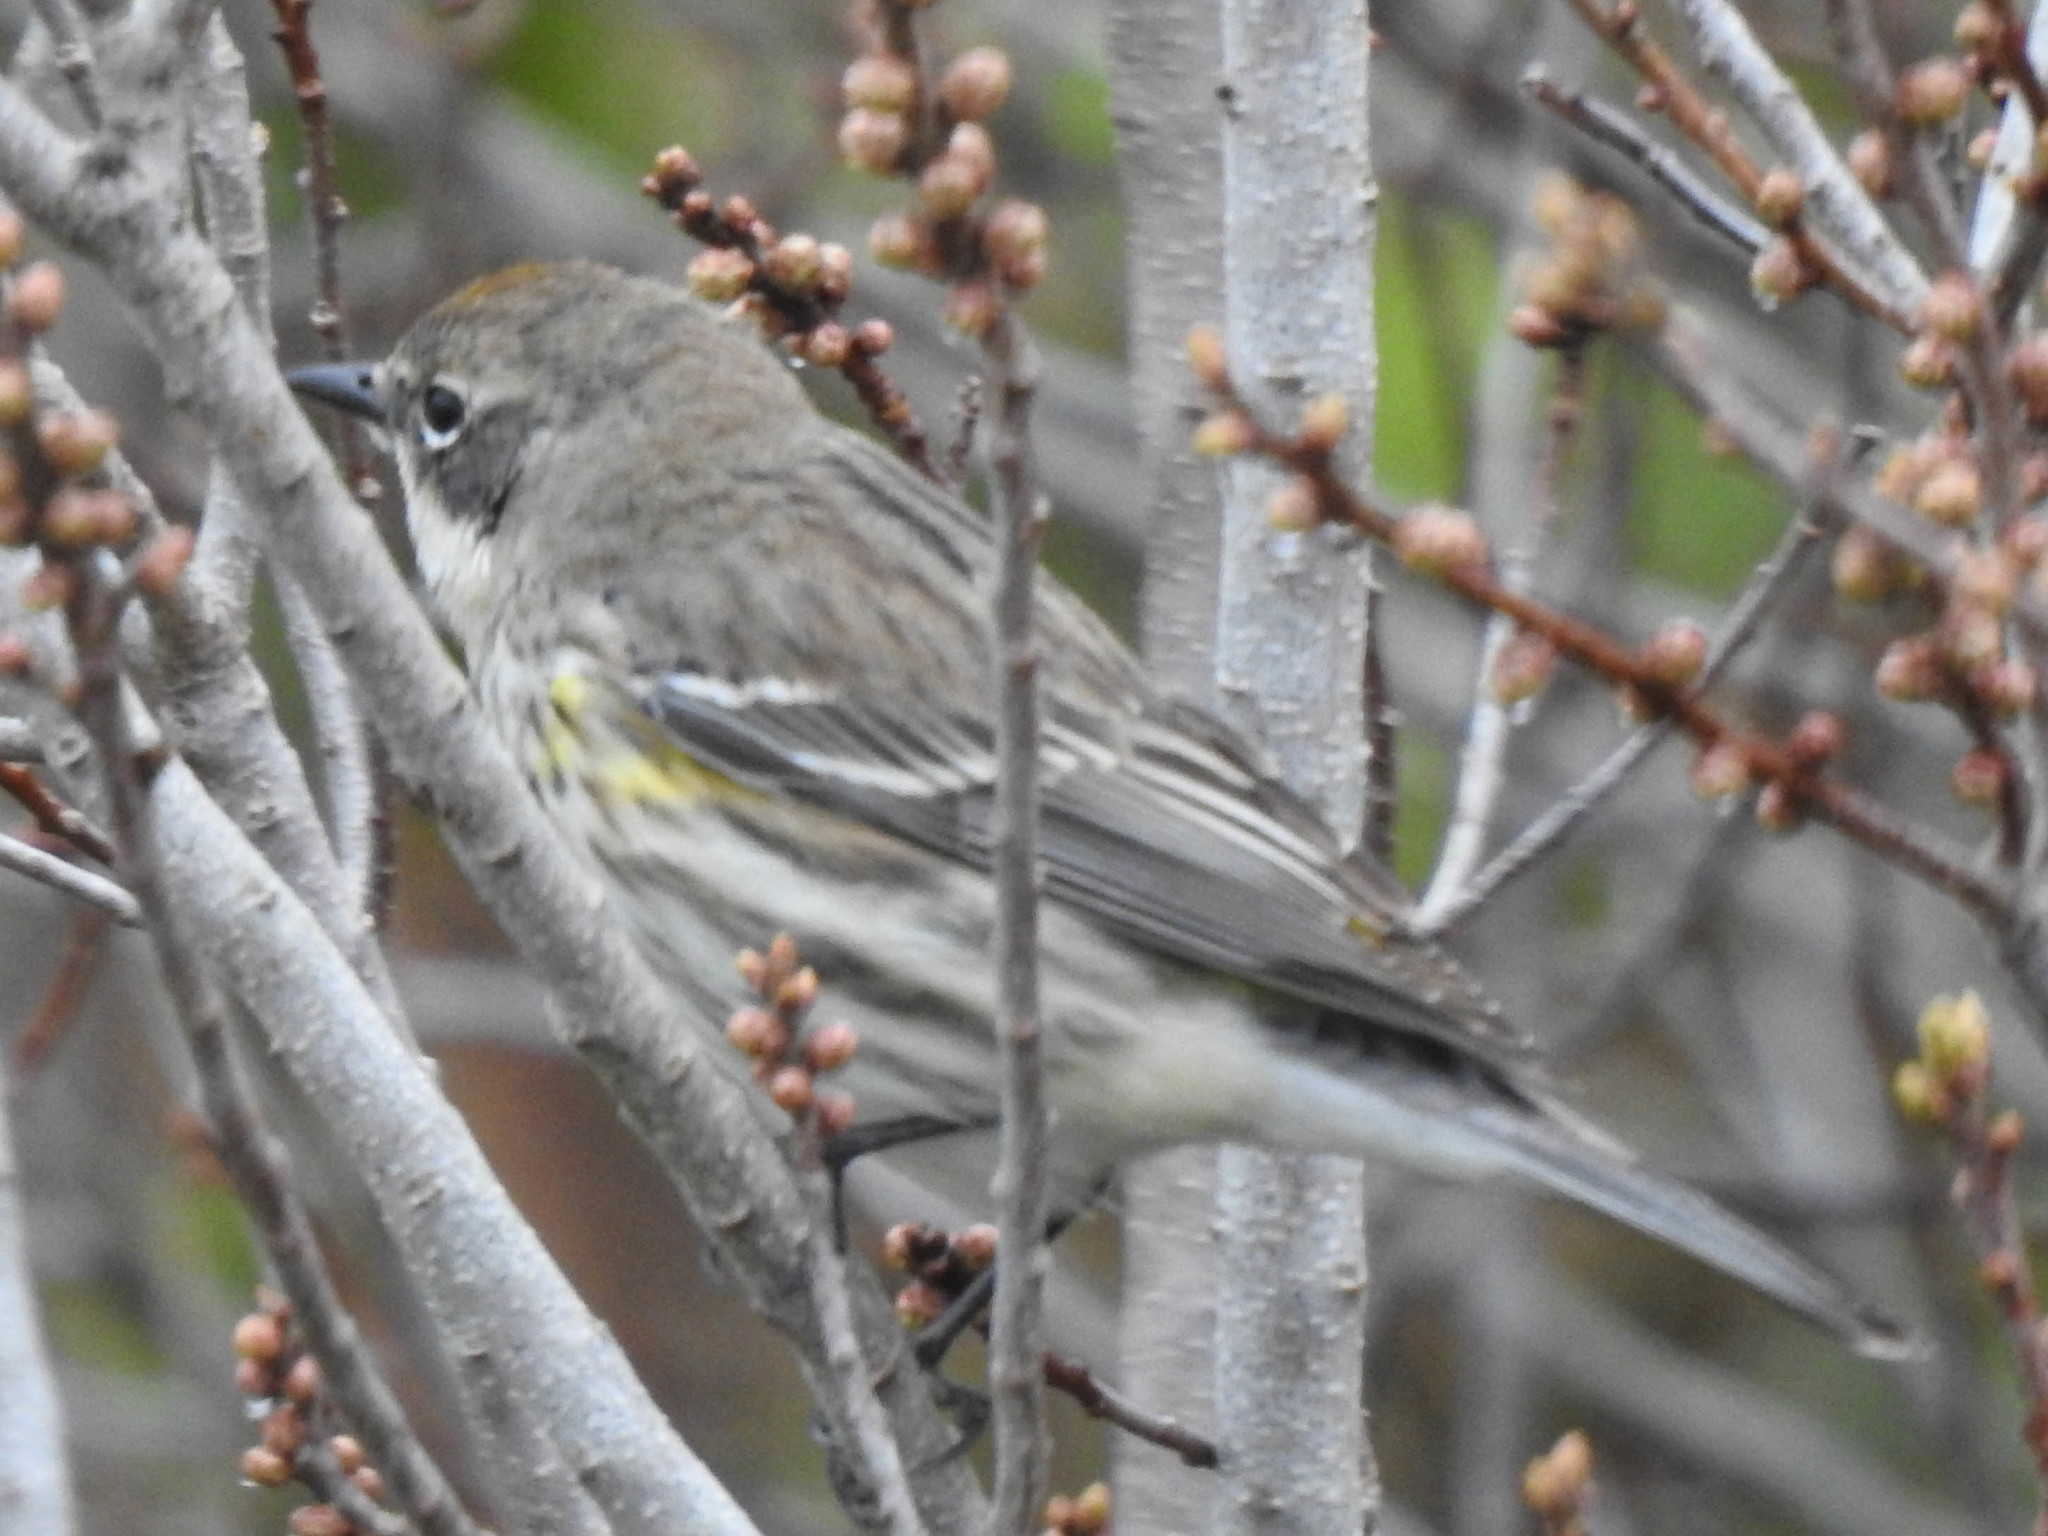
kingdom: Animalia
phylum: Chordata
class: Aves
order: Passeriformes
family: Parulidae
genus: Setophaga
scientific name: Setophaga coronata
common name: Myrtle warbler
